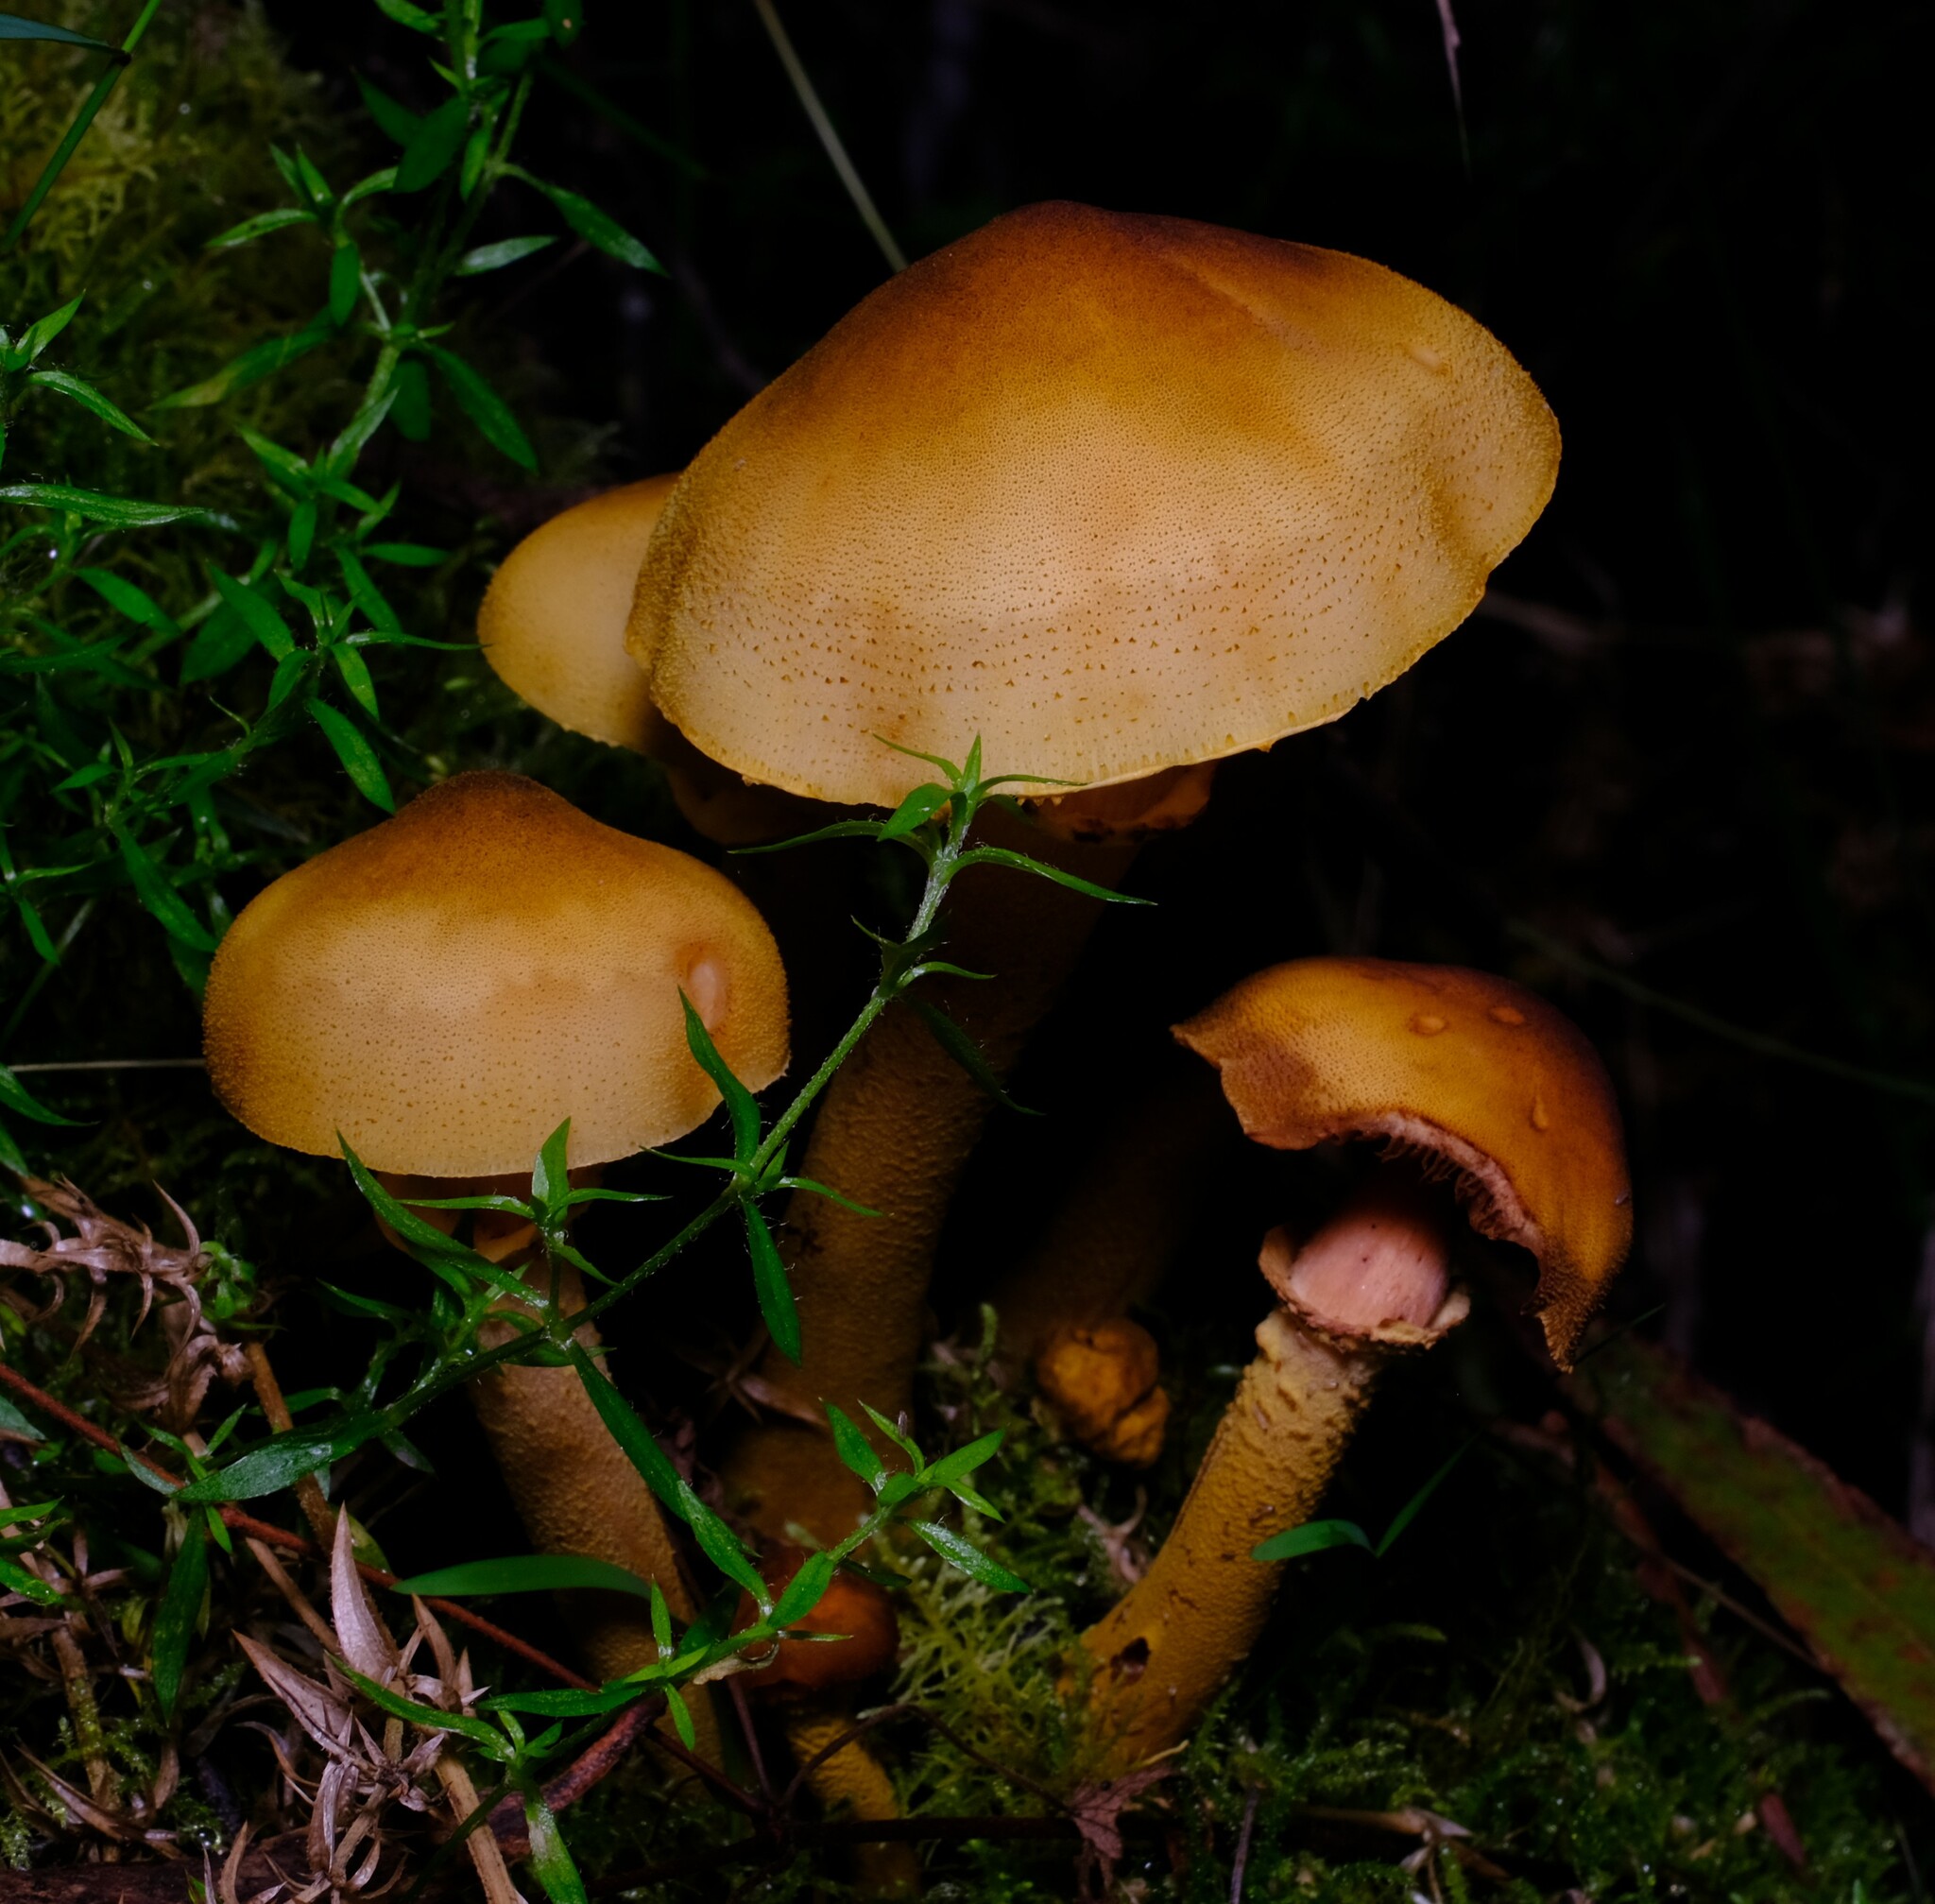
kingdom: Fungi
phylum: Basidiomycota
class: Agaricomycetes
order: Agaricales
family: Physalacriaceae
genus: Armillaria
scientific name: Armillaria luteobubalina
